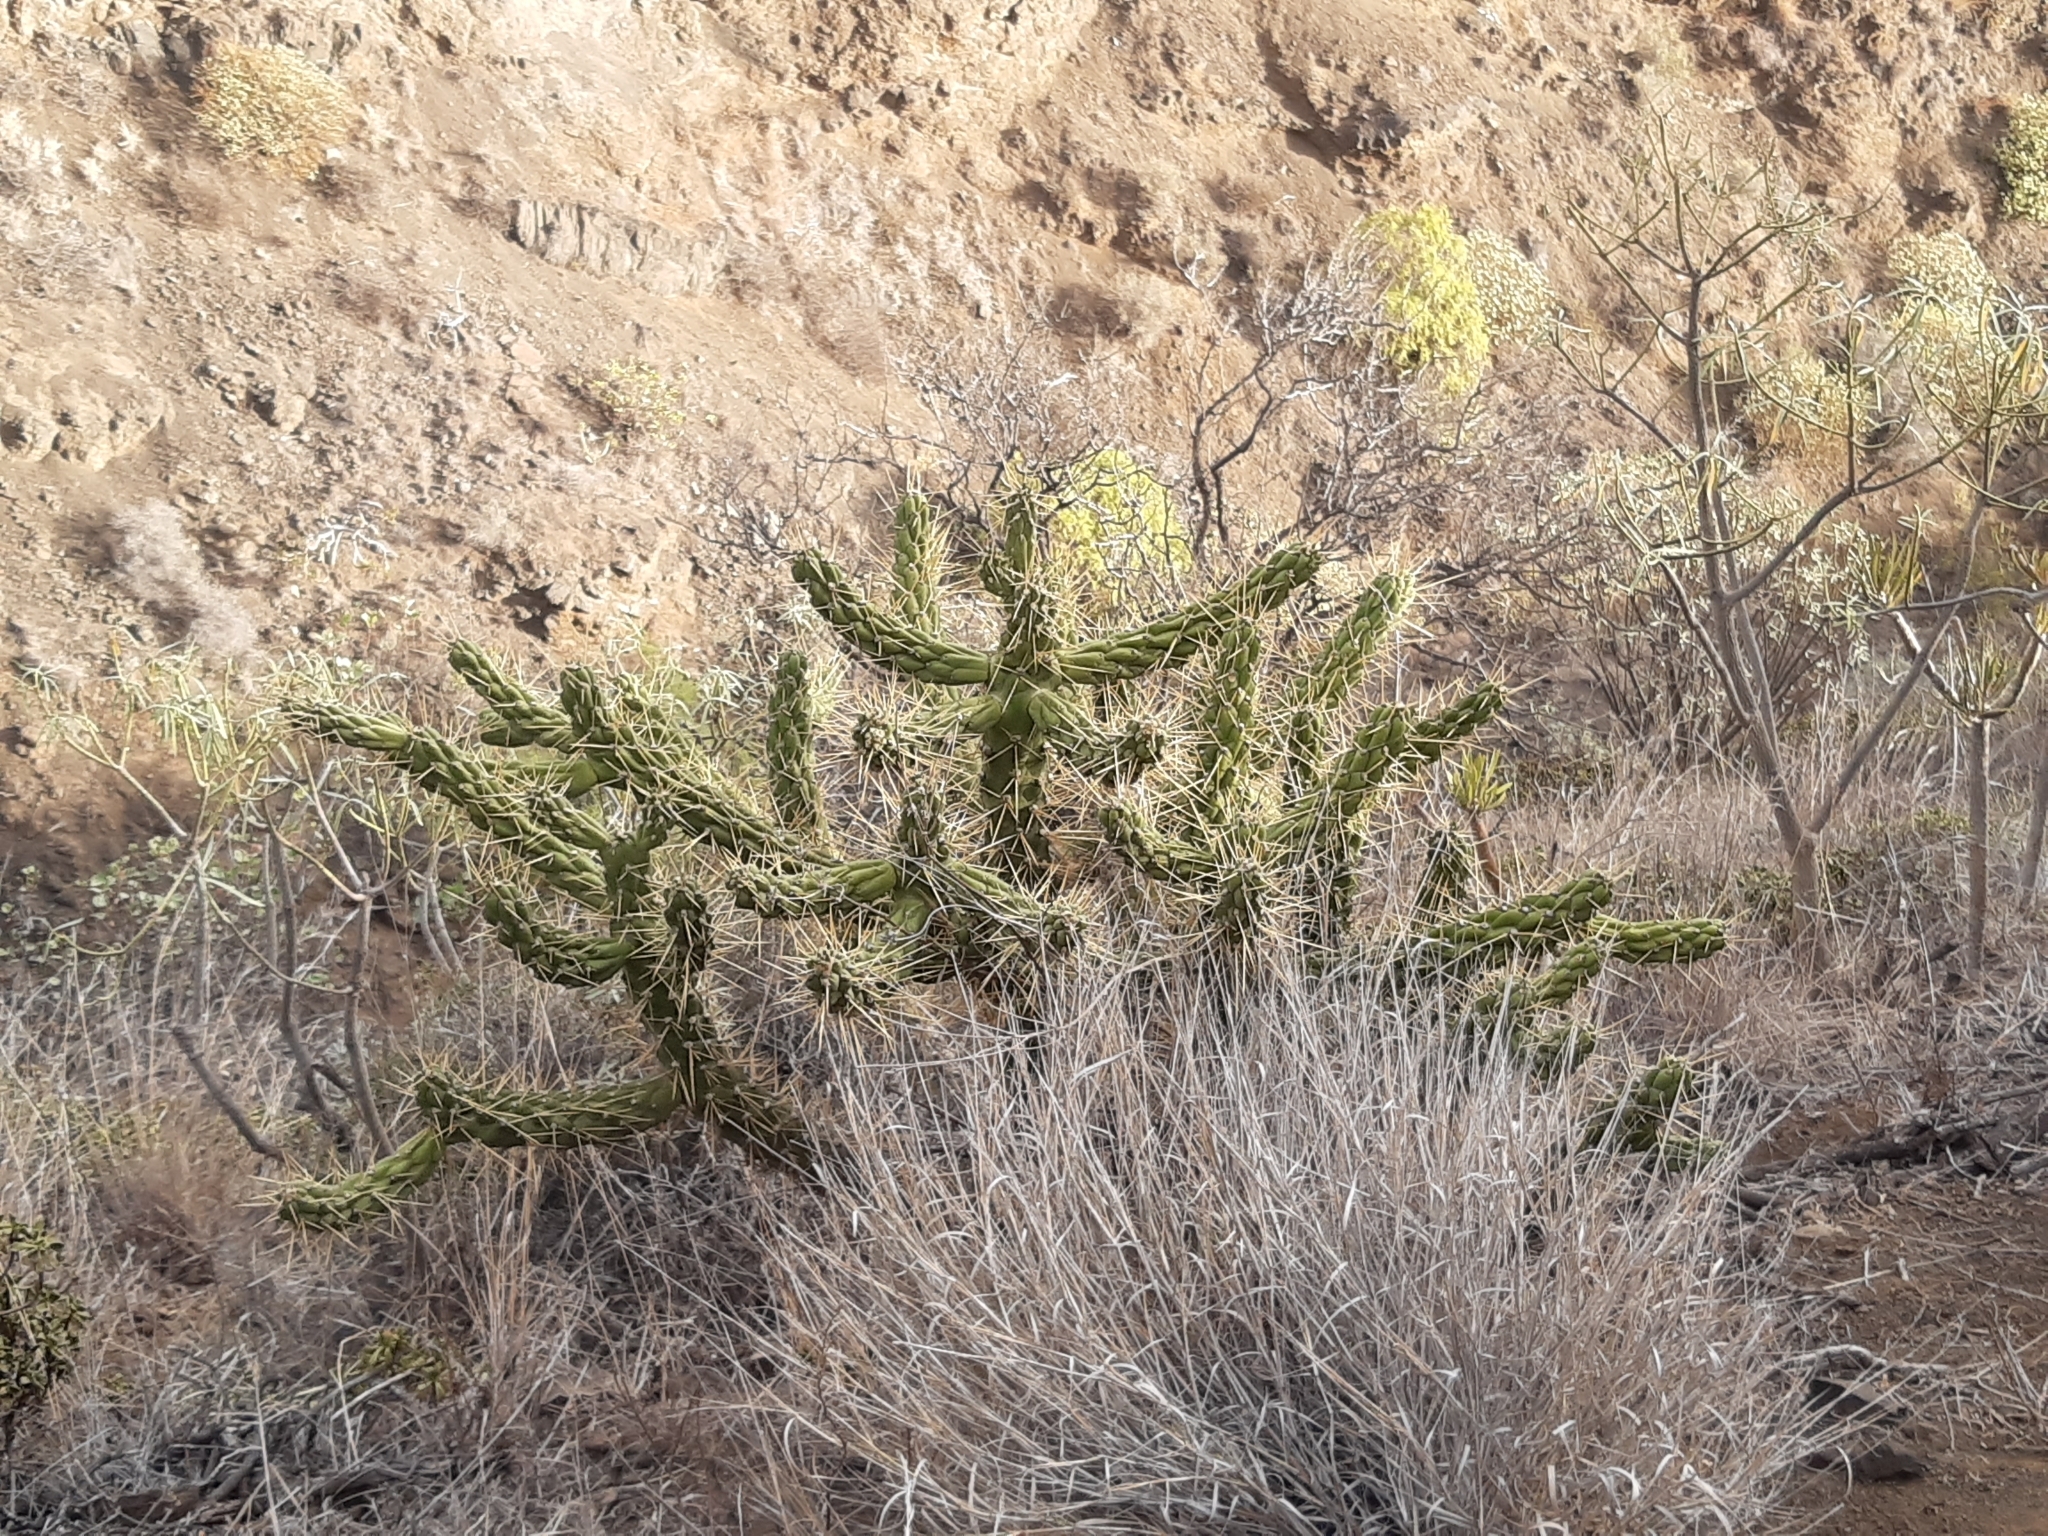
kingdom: Plantae
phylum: Tracheophyta
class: Magnoliopsida
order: Caryophyllales
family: Cactaceae
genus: Austrocylindropuntia
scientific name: Austrocylindropuntia subulata
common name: Eve's needle cactus
